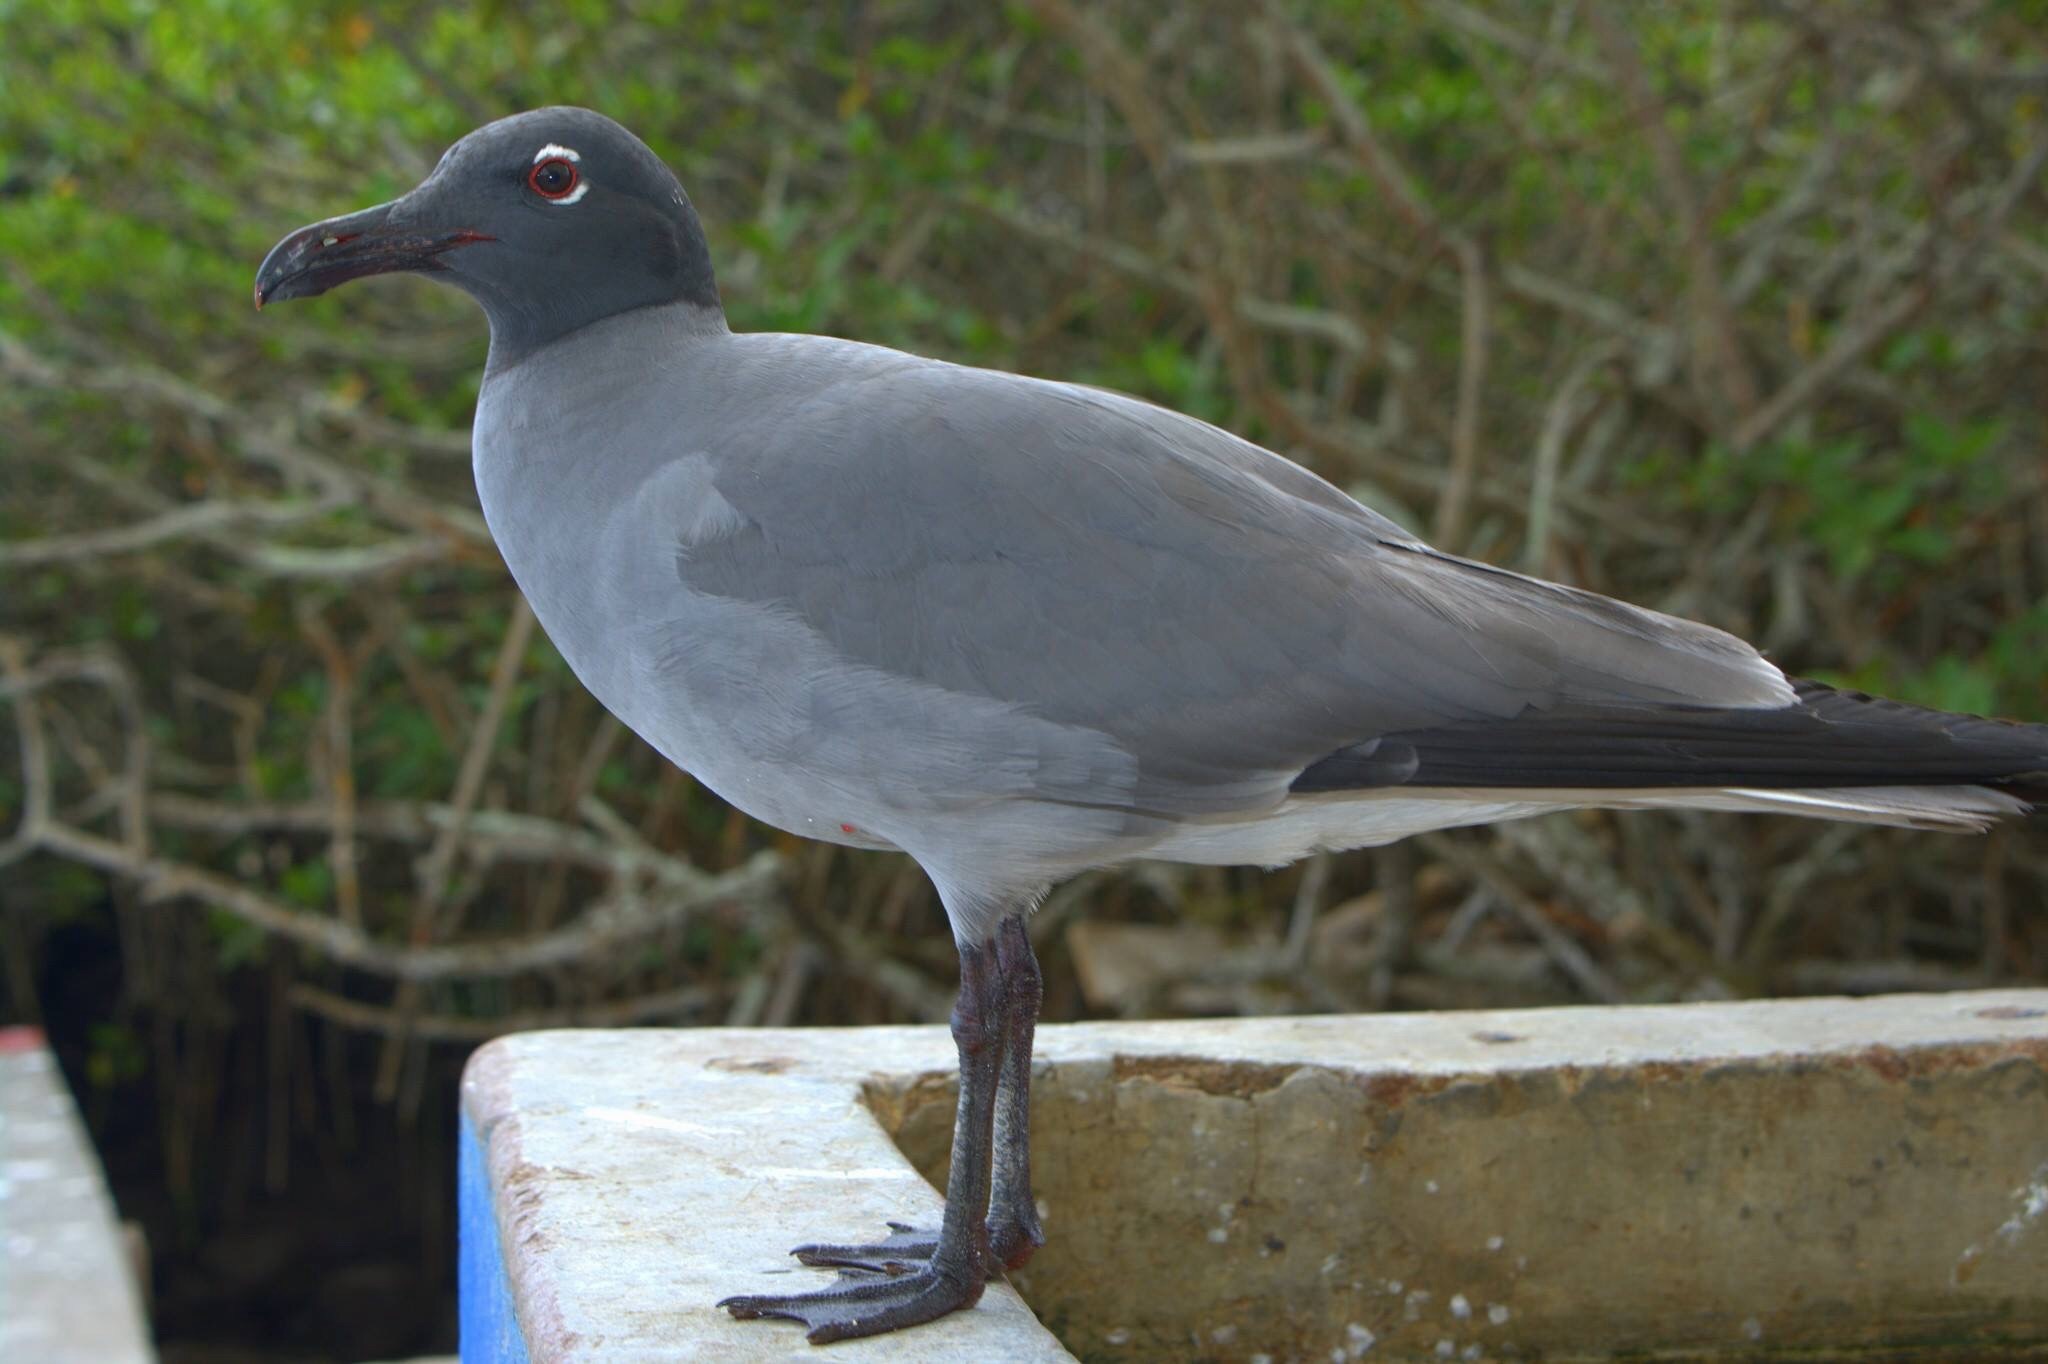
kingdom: Animalia
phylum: Chordata
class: Aves
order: Charadriiformes
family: Laridae
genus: Leucophaeus
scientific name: Leucophaeus fuliginosus
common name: Lava gull
